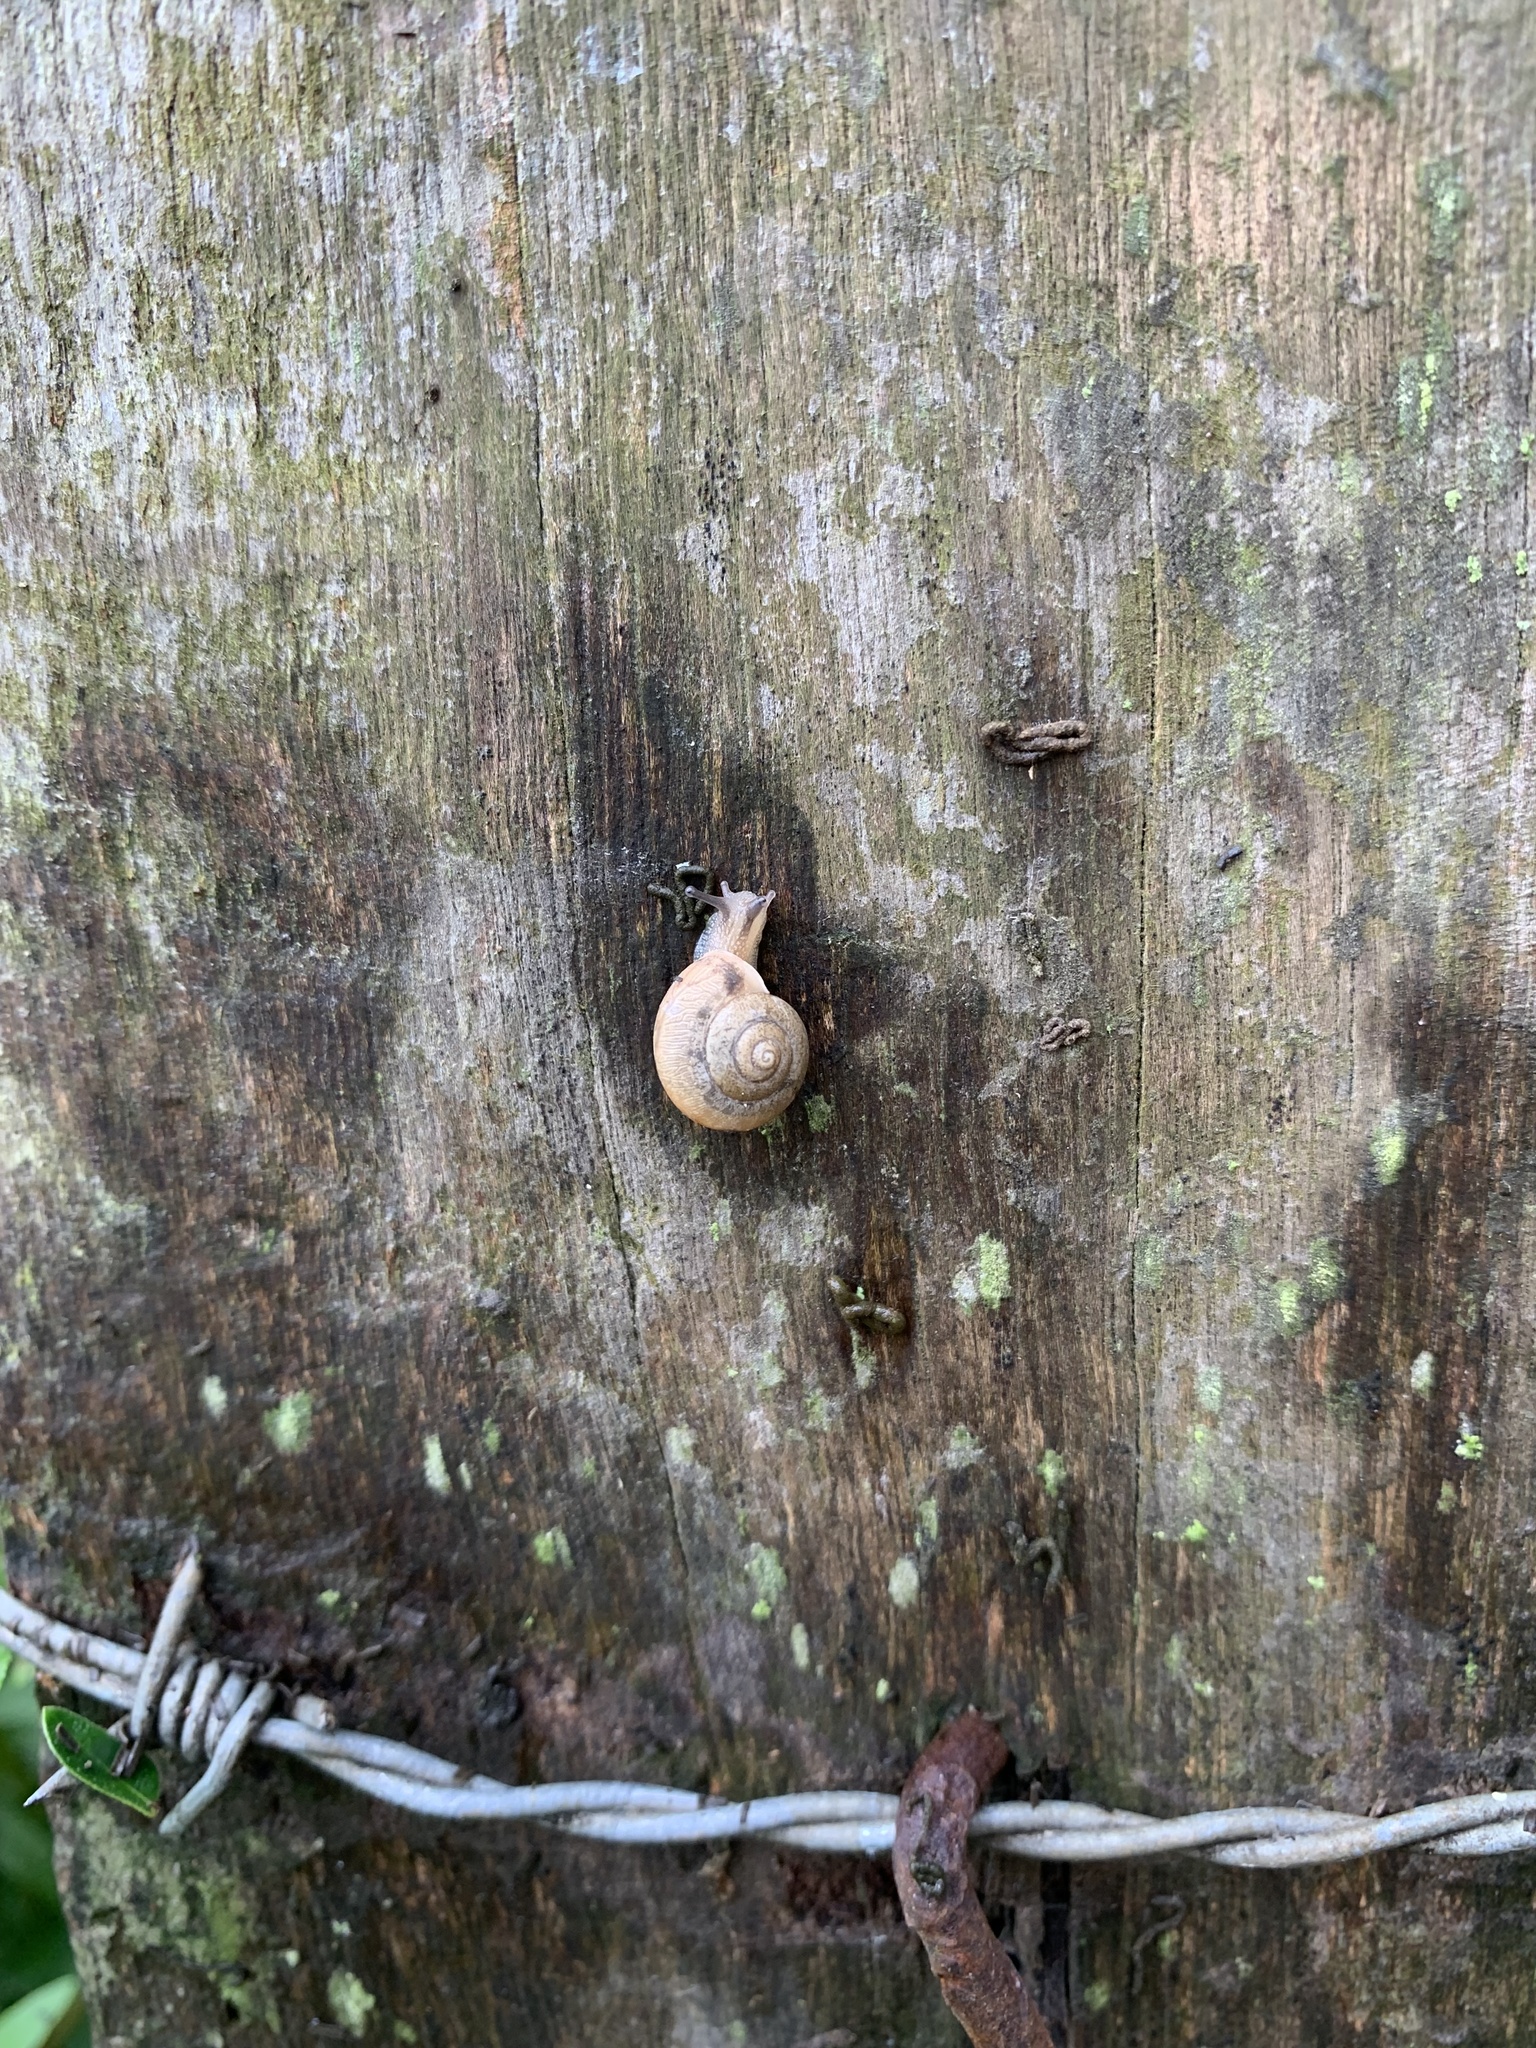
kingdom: Animalia
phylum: Mollusca
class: Gastropoda
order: Stylommatophora
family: Camaenidae
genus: Bradybaena
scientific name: Bradybaena similaris
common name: Asian trampsnail
